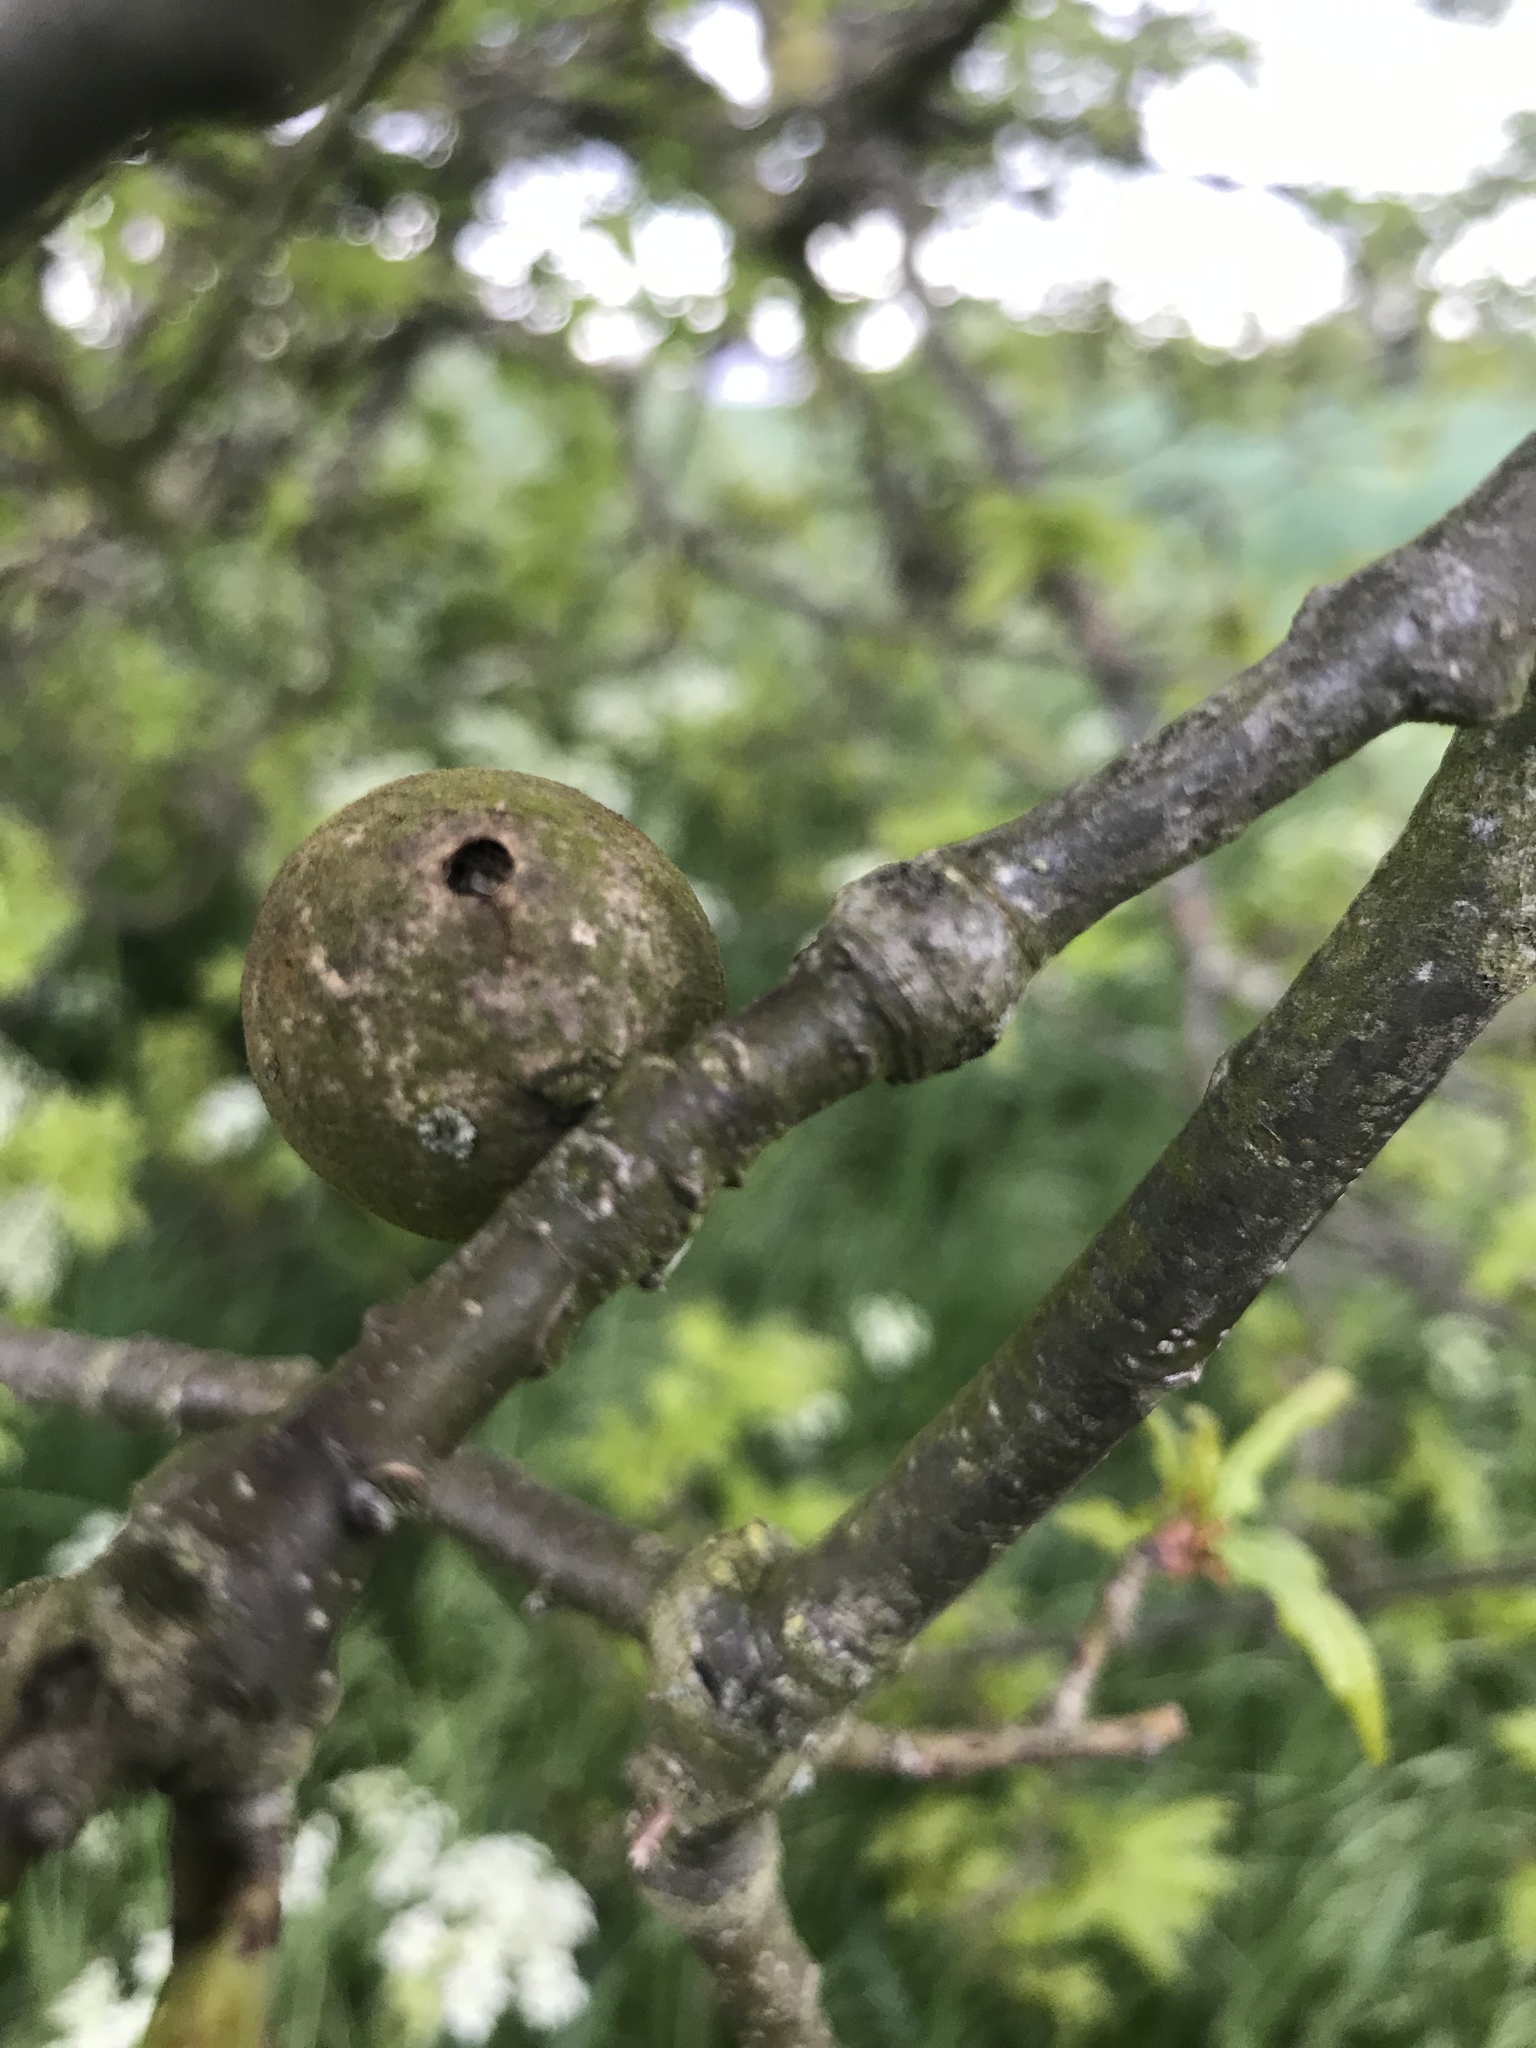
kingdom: Animalia
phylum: Arthropoda
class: Insecta
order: Hymenoptera
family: Cynipidae
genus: Andricus
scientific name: Andricus kollari
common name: Marble gall
